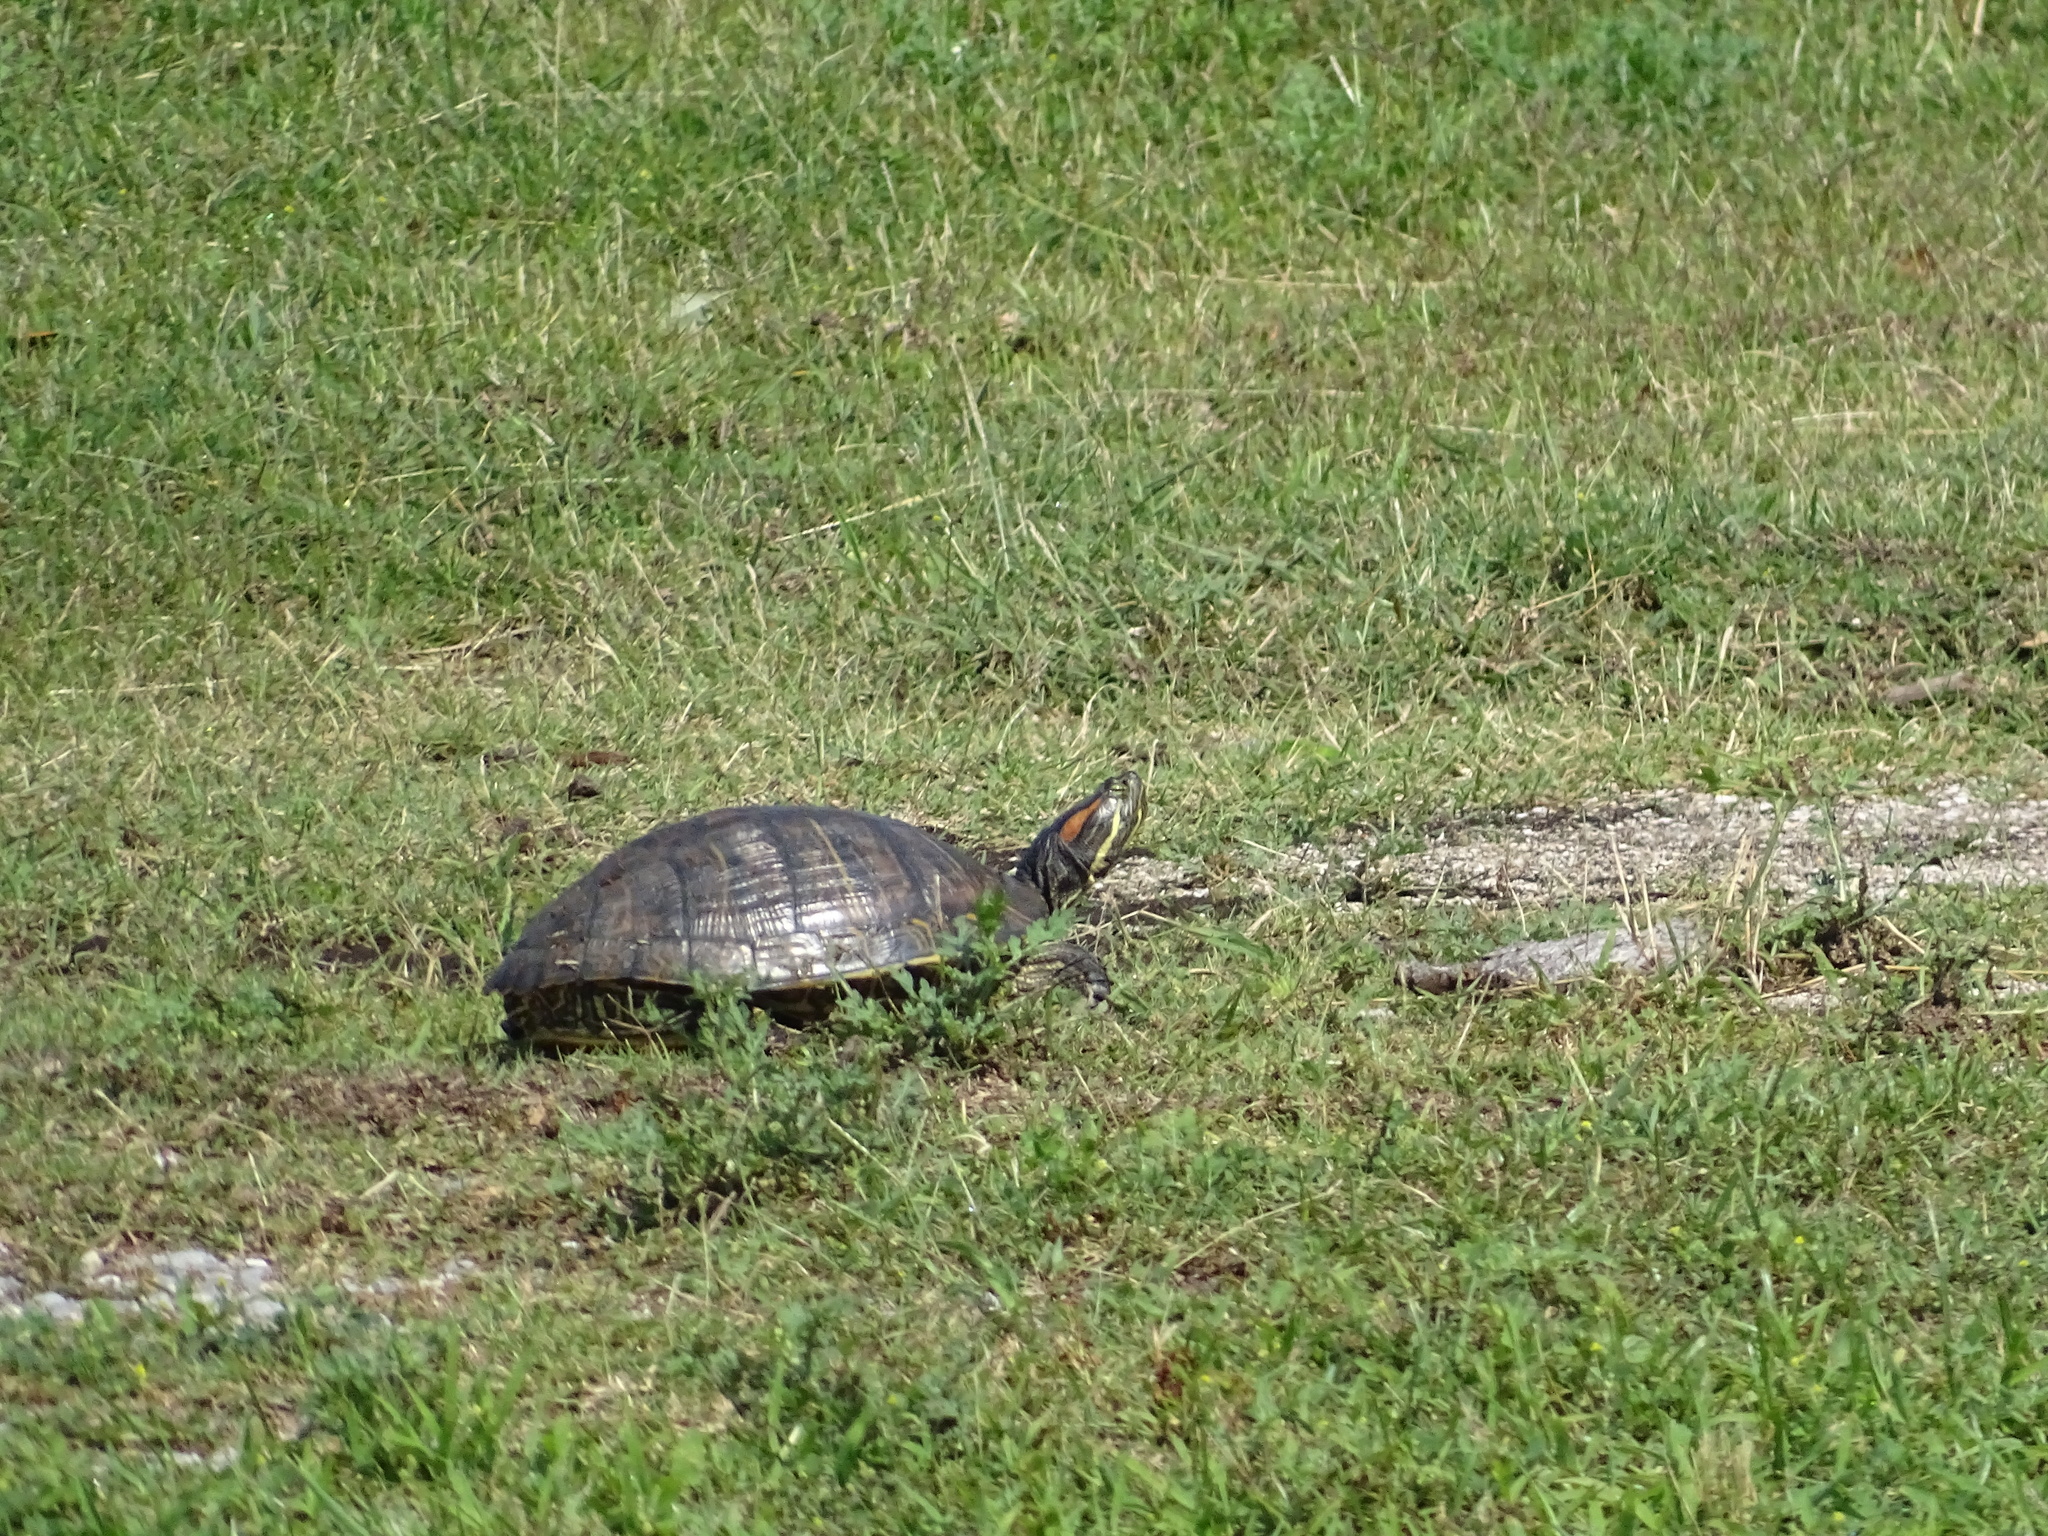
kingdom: Animalia
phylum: Chordata
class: Testudines
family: Emydidae
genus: Trachemys
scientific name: Trachemys scripta
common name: Slider
